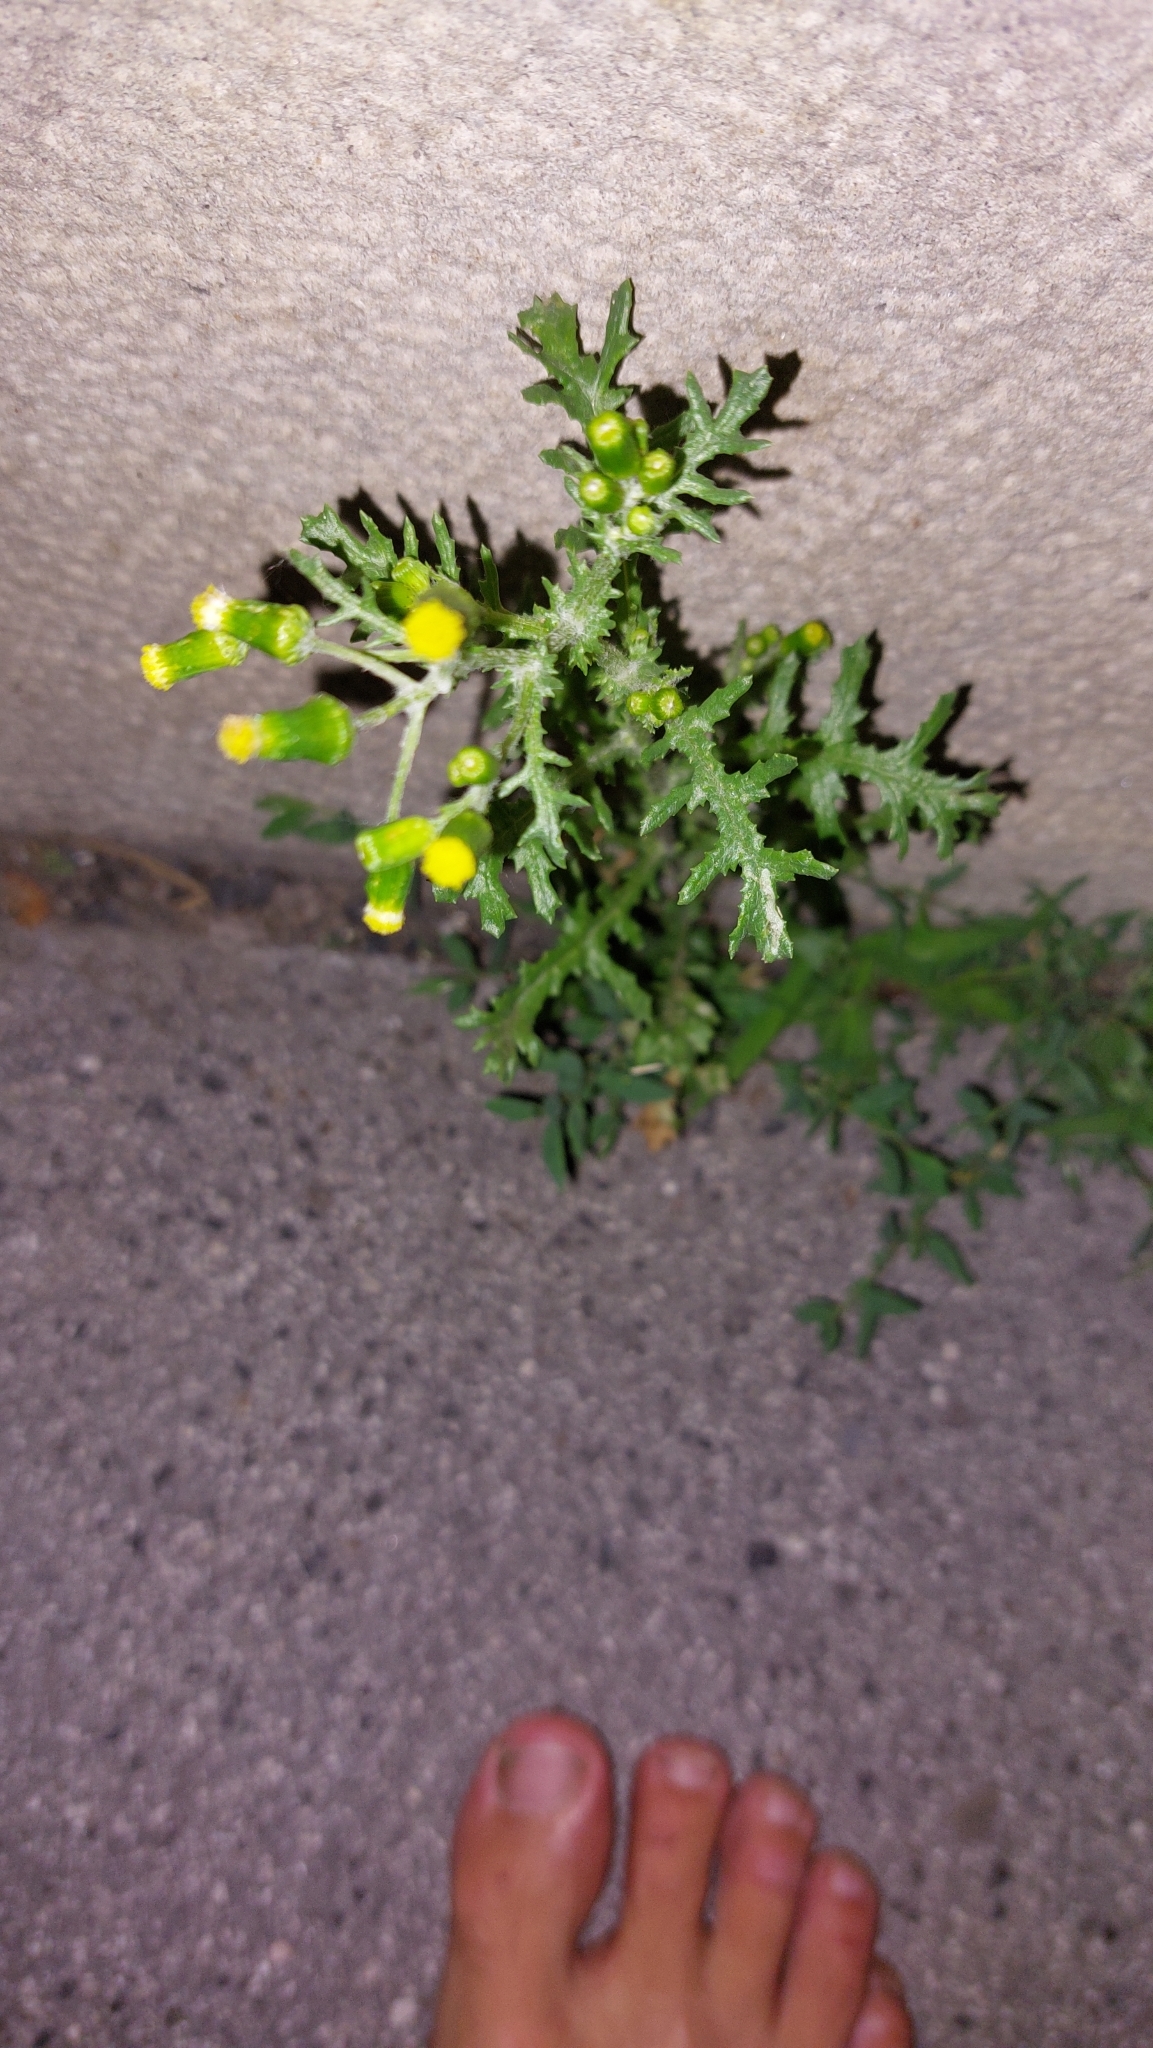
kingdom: Plantae
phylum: Tracheophyta
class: Magnoliopsida
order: Asterales
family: Asteraceae
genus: Senecio
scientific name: Senecio vulgaris
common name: Old-man-in-the-spring
